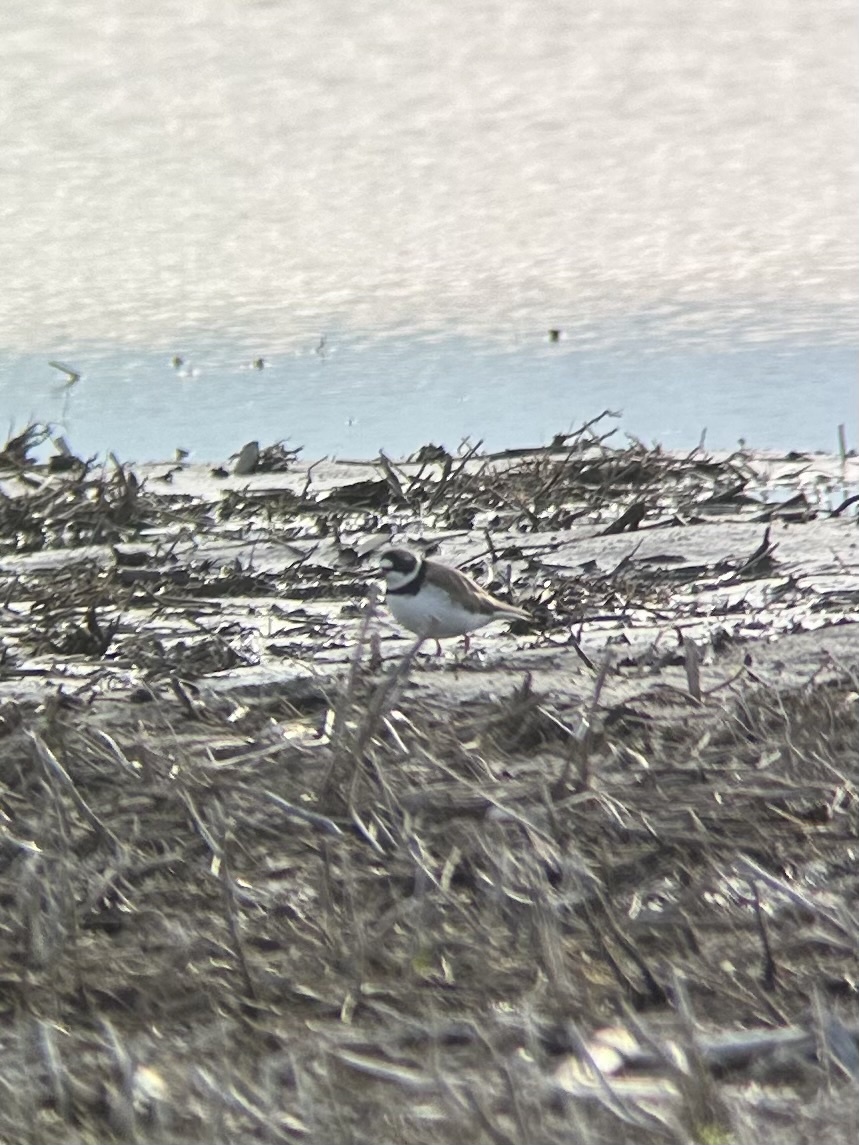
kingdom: Animalia
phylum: Chordata
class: Aves
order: Charadriiformes
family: Charadriidae
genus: Charadrius
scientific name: Charadrius semipalmatus
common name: Semipalmated plover
